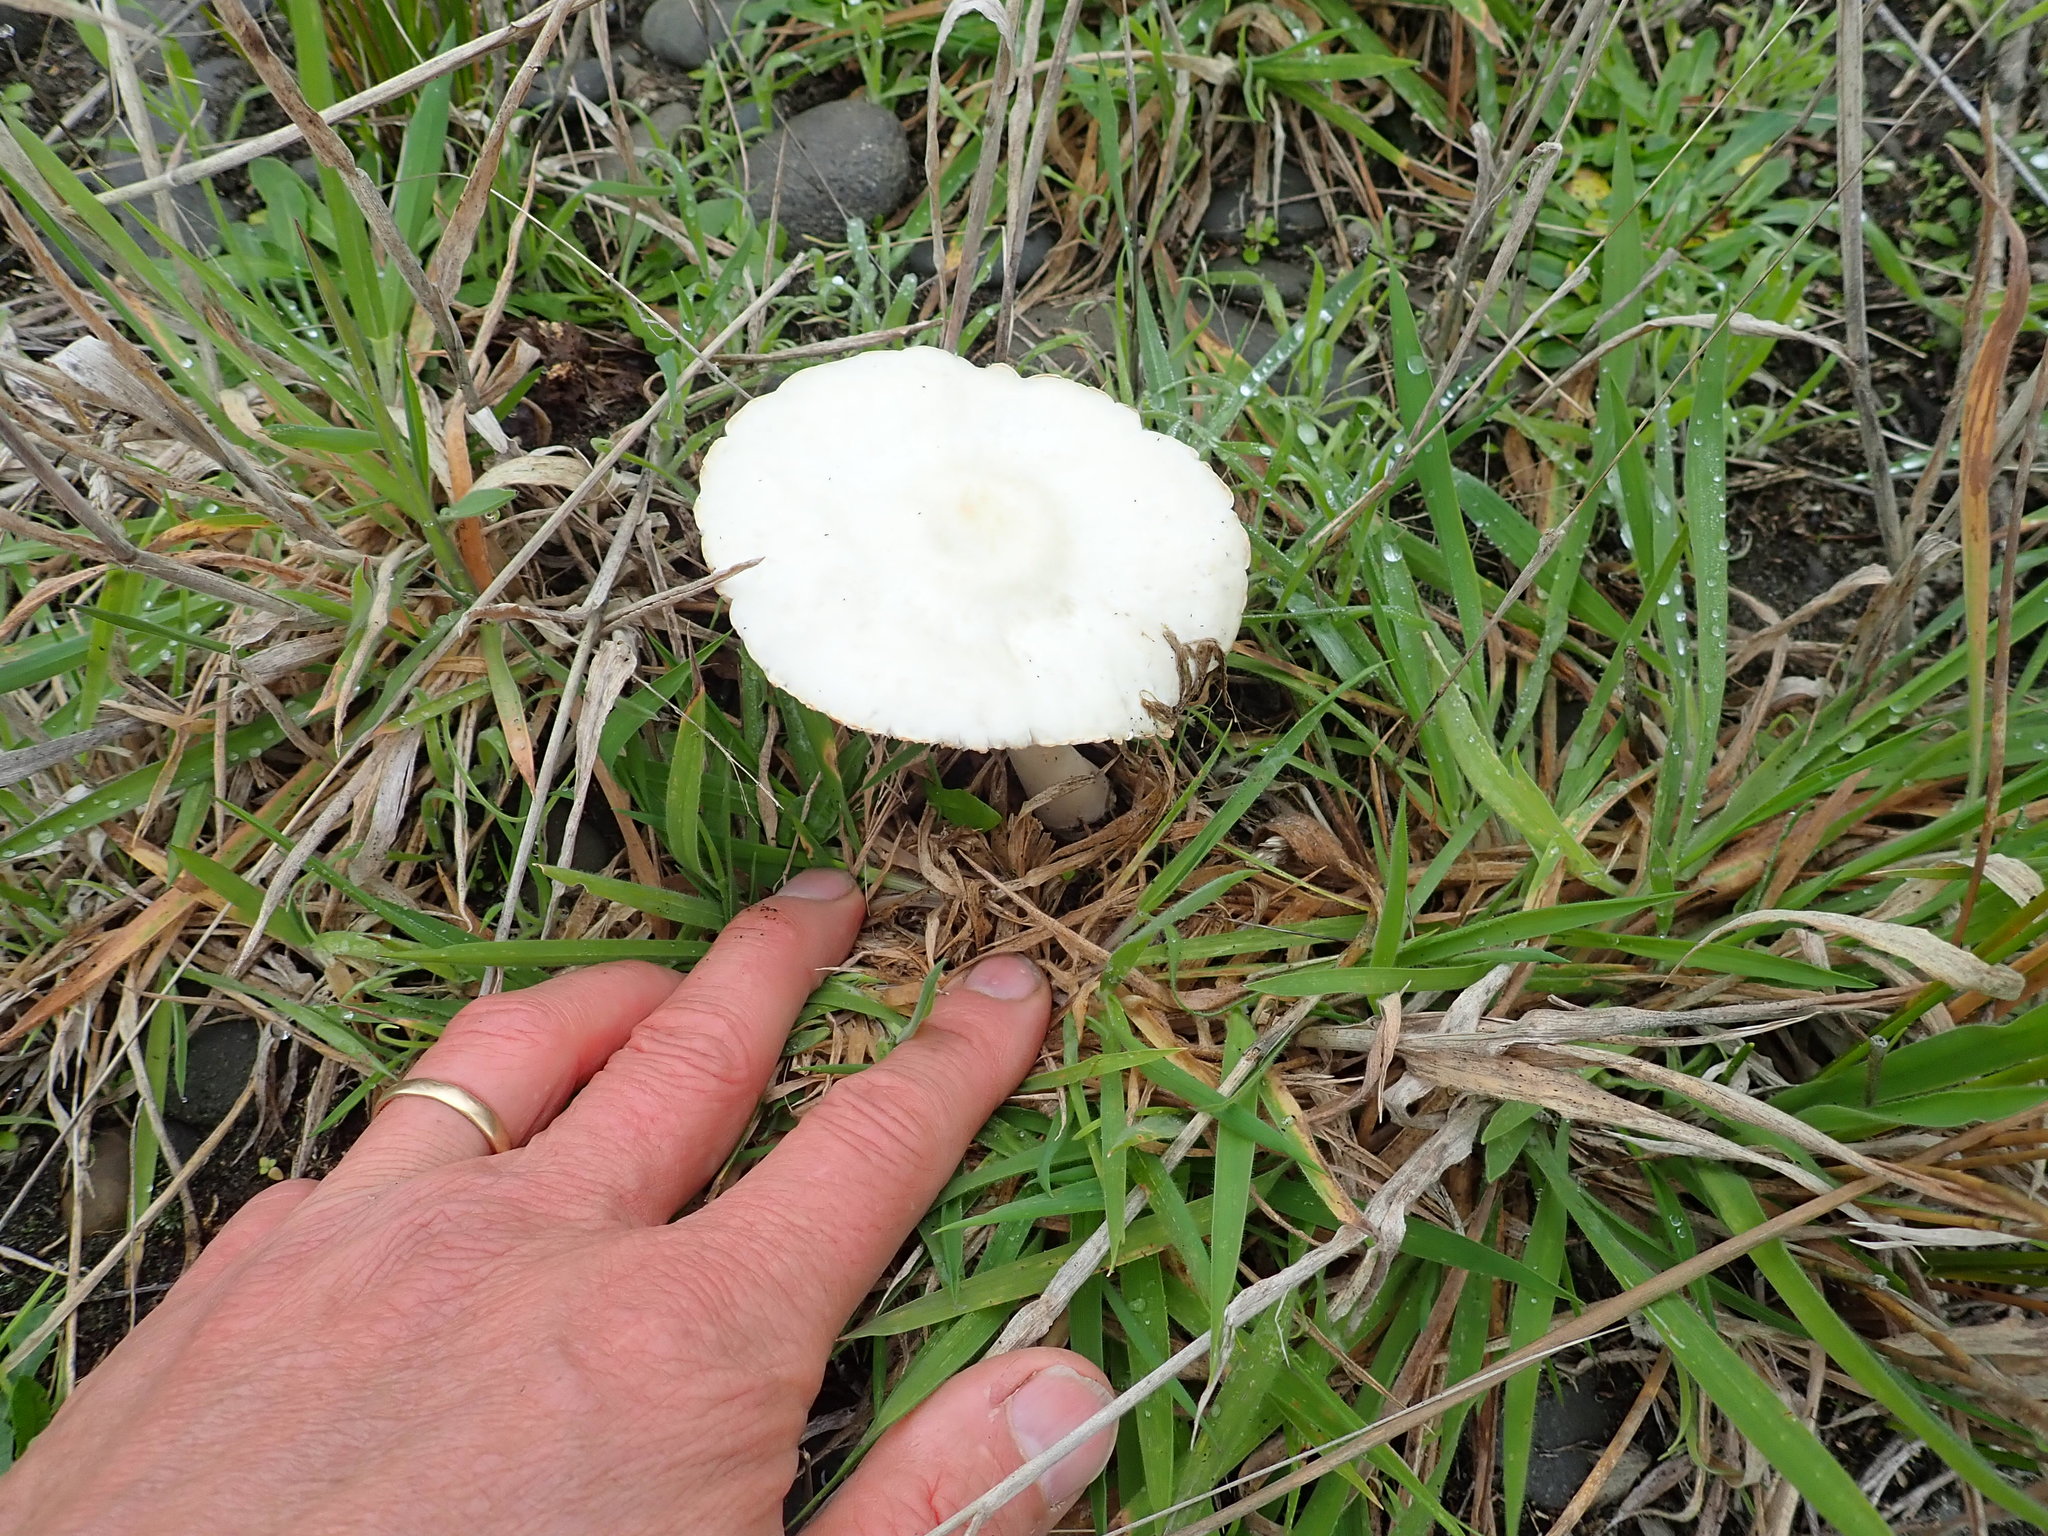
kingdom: Fungi
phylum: Basidiomycota
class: Agaricomycetes
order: Agaricales
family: Agaricaceae
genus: Leucoagaricus
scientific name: Leucoagaricus leucothites
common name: White dapperling
